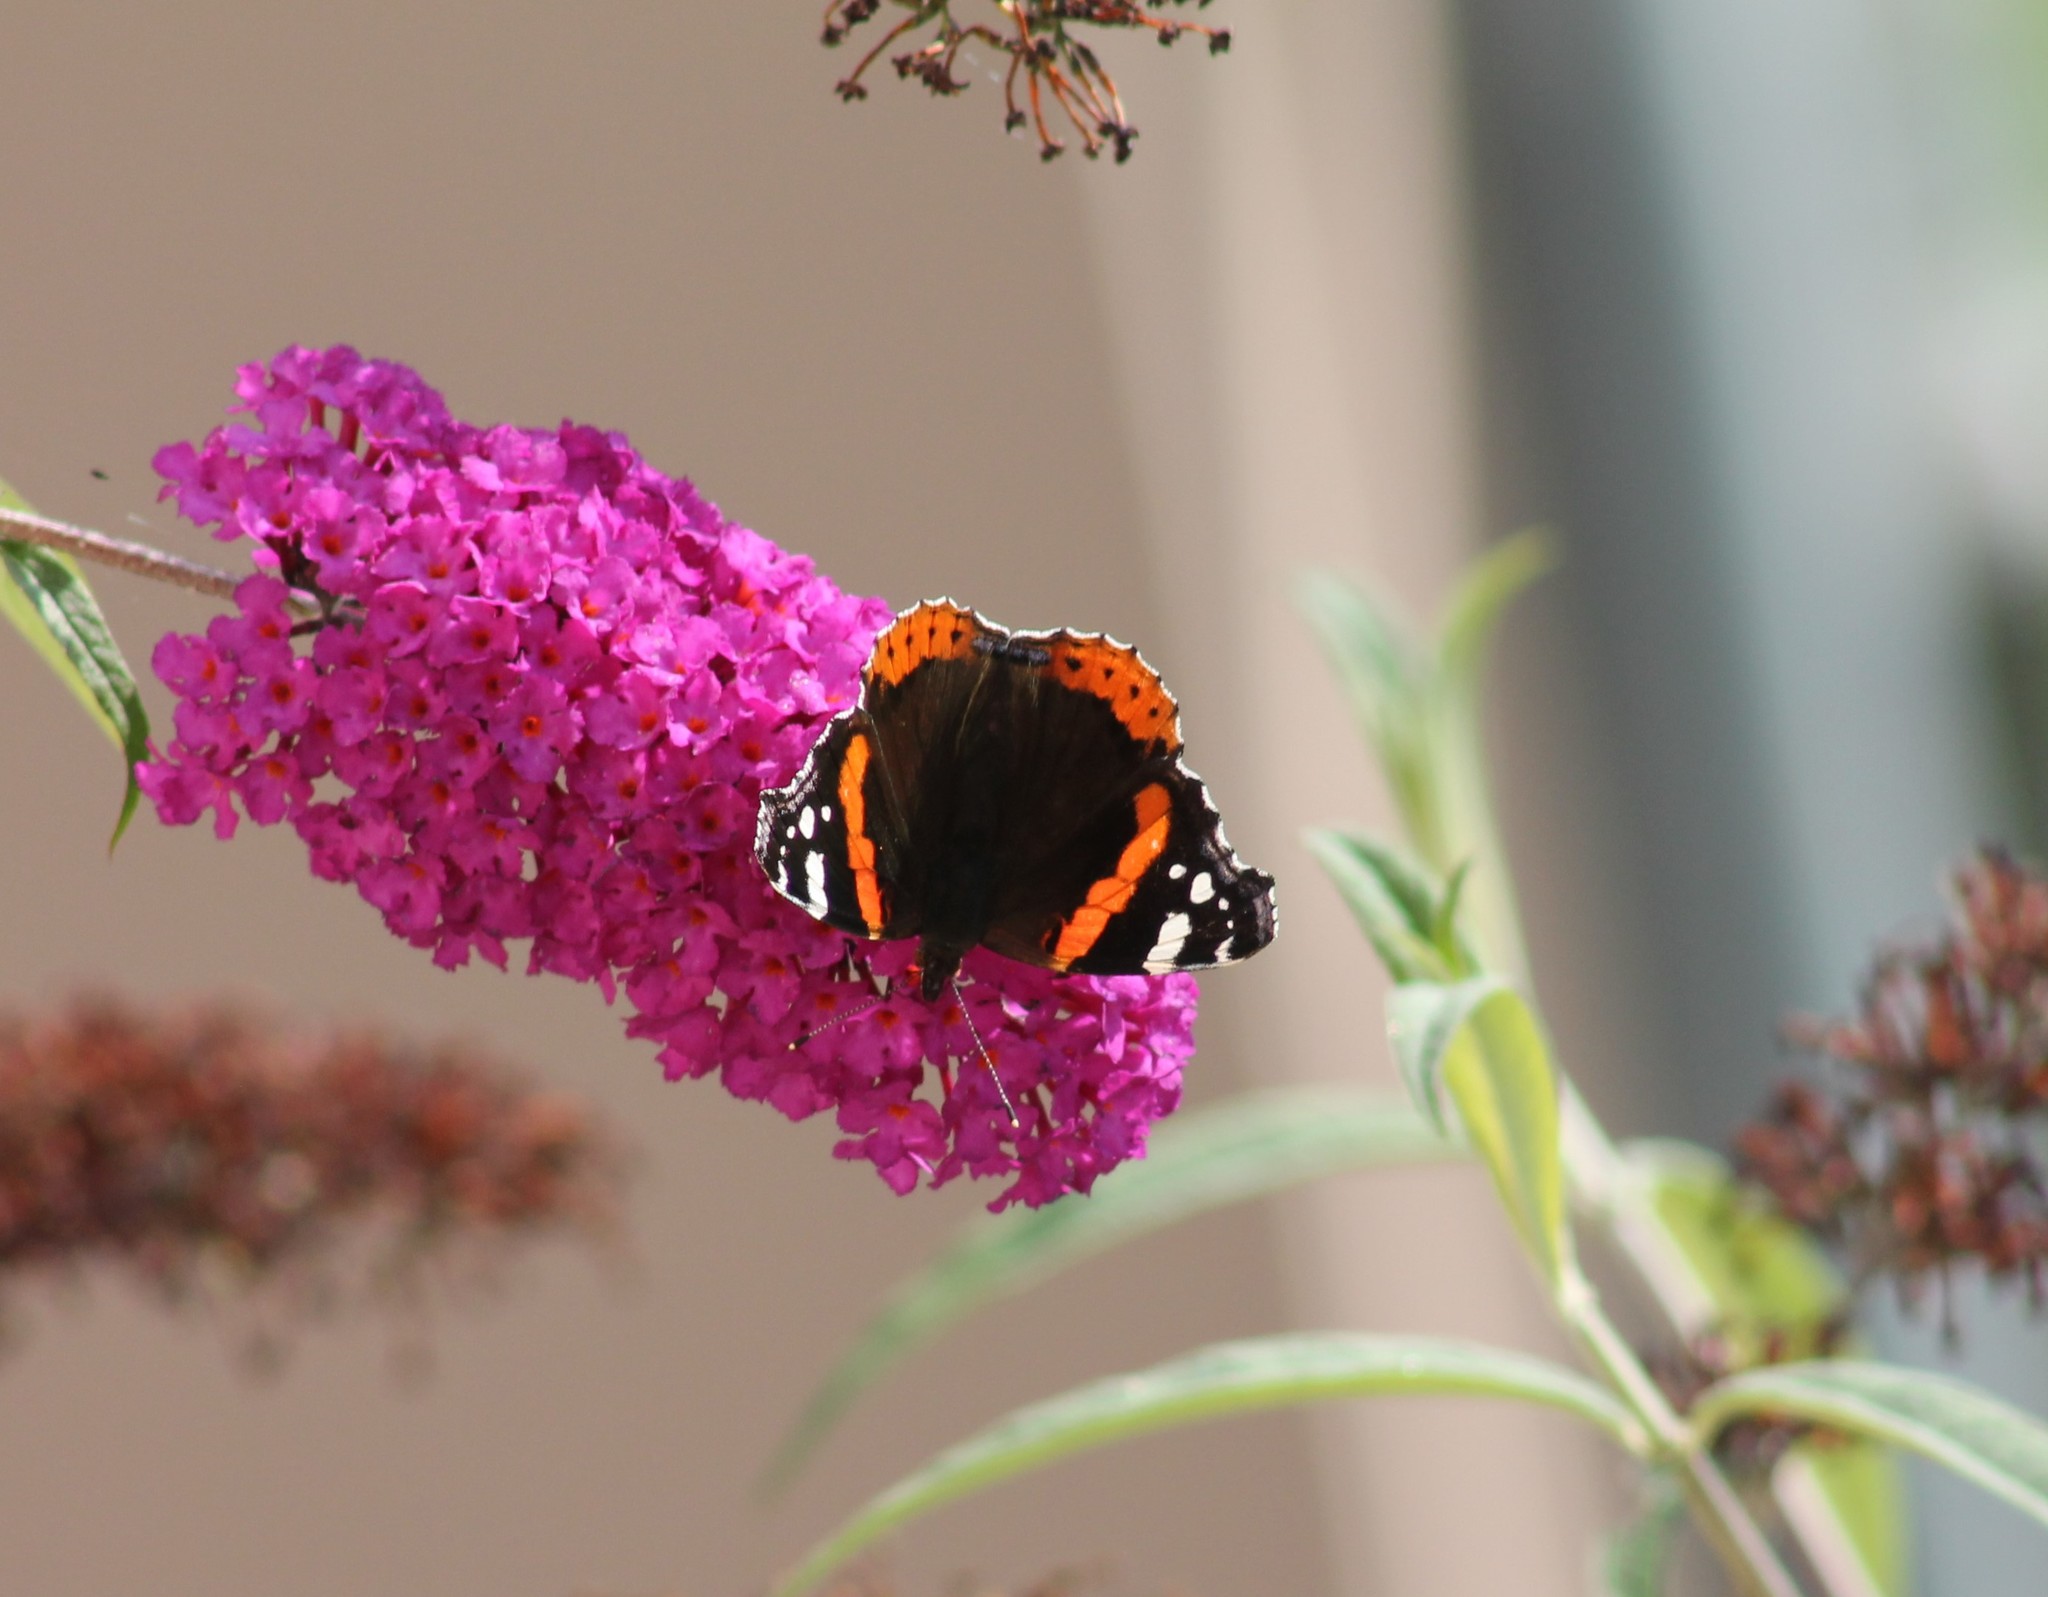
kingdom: Animalia
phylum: Arthropoda
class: Insecta
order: Lepidoptera
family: Nymphalidae
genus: Vanessa
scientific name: Vanessa atalanta
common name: Red admiral
